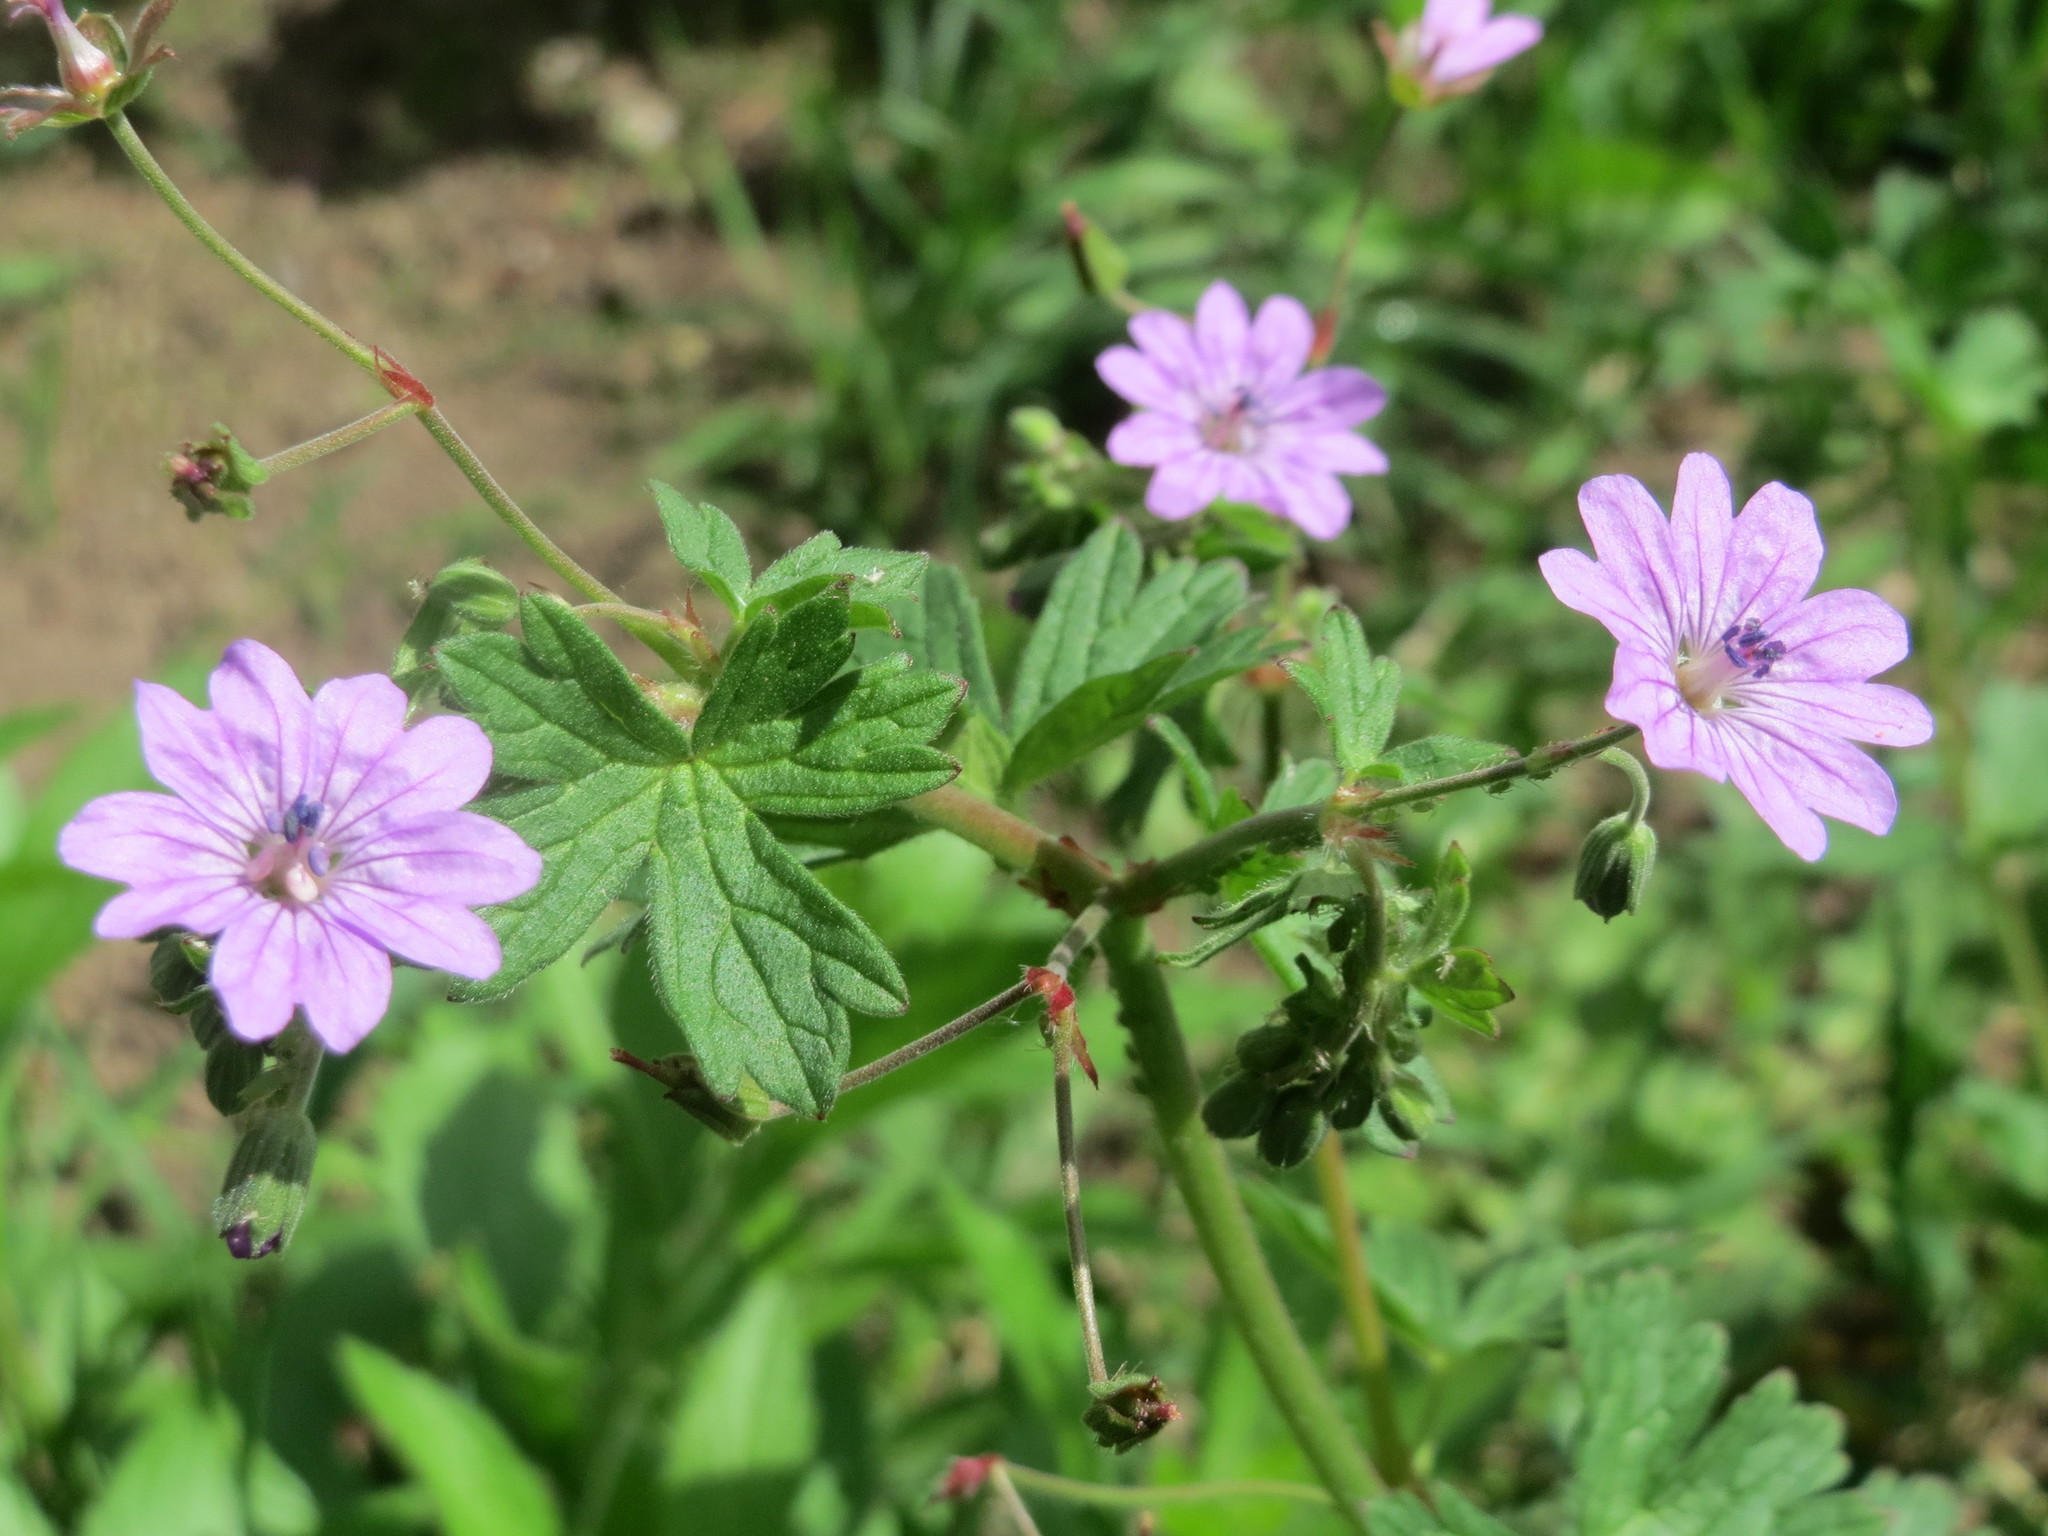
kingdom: Plantae
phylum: Tracheophyta
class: Magnoliopsida
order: Geraniales
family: Geraniaceae
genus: Geranium
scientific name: Geranium pyrenaicum
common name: Hedgerow crane's-bill
